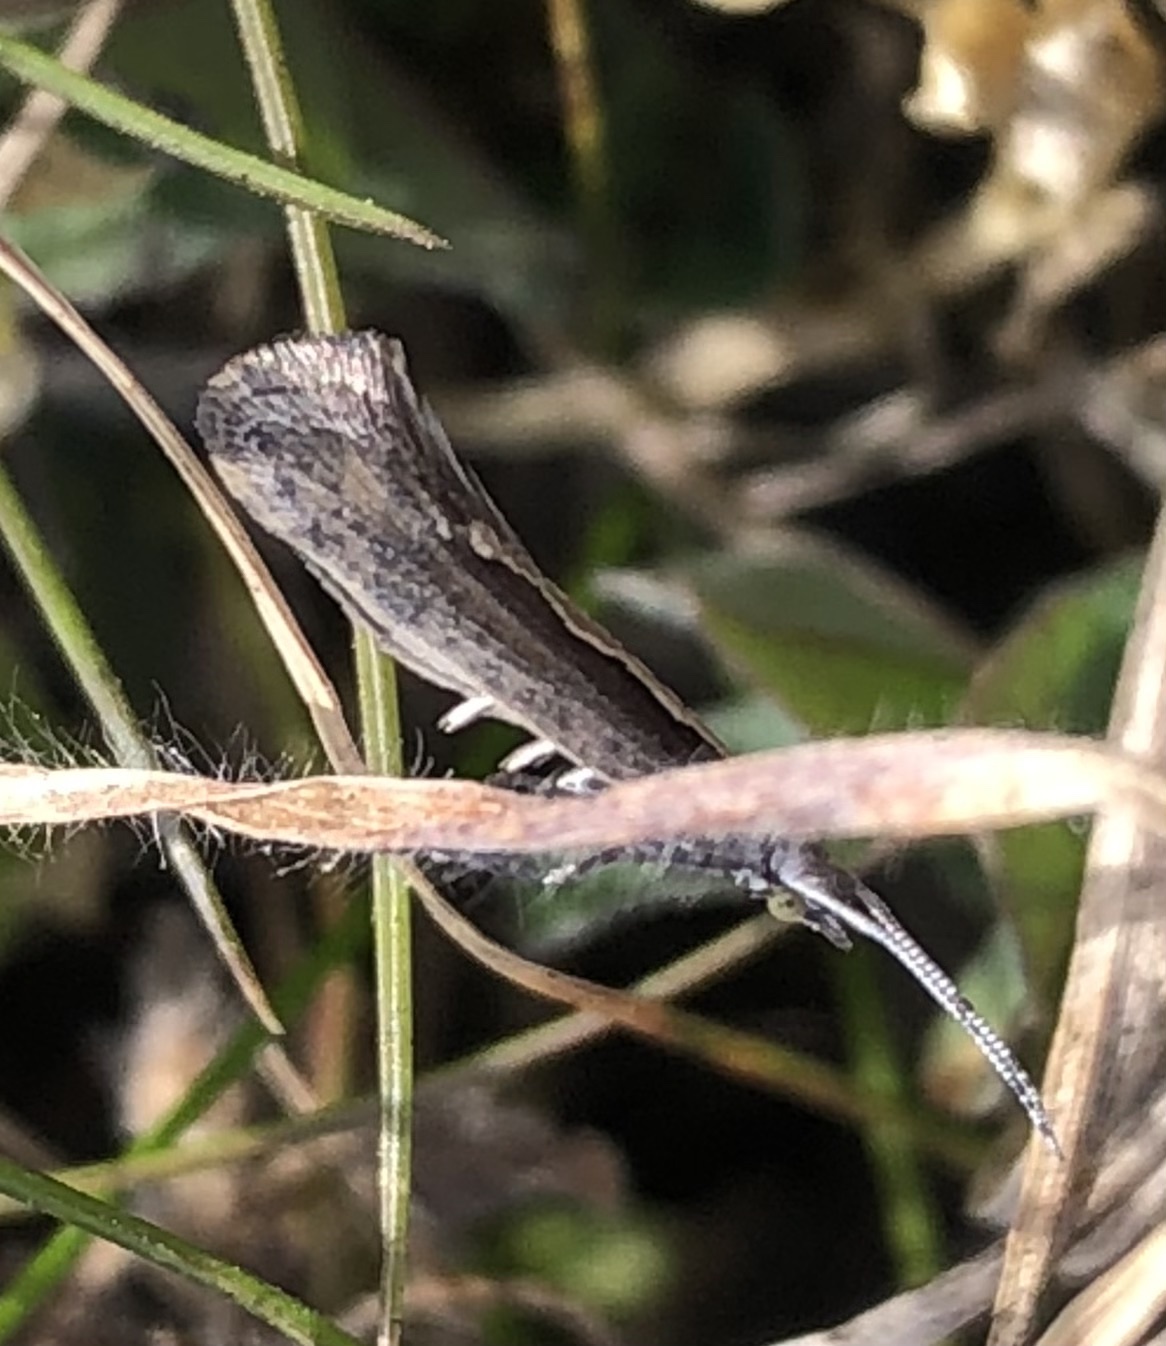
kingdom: Animalia
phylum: Arthropoda
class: Insecta
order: Lepidoptera
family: Plutellidae
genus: Plutella
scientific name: Plutella xylostella
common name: Diamond-back moth
